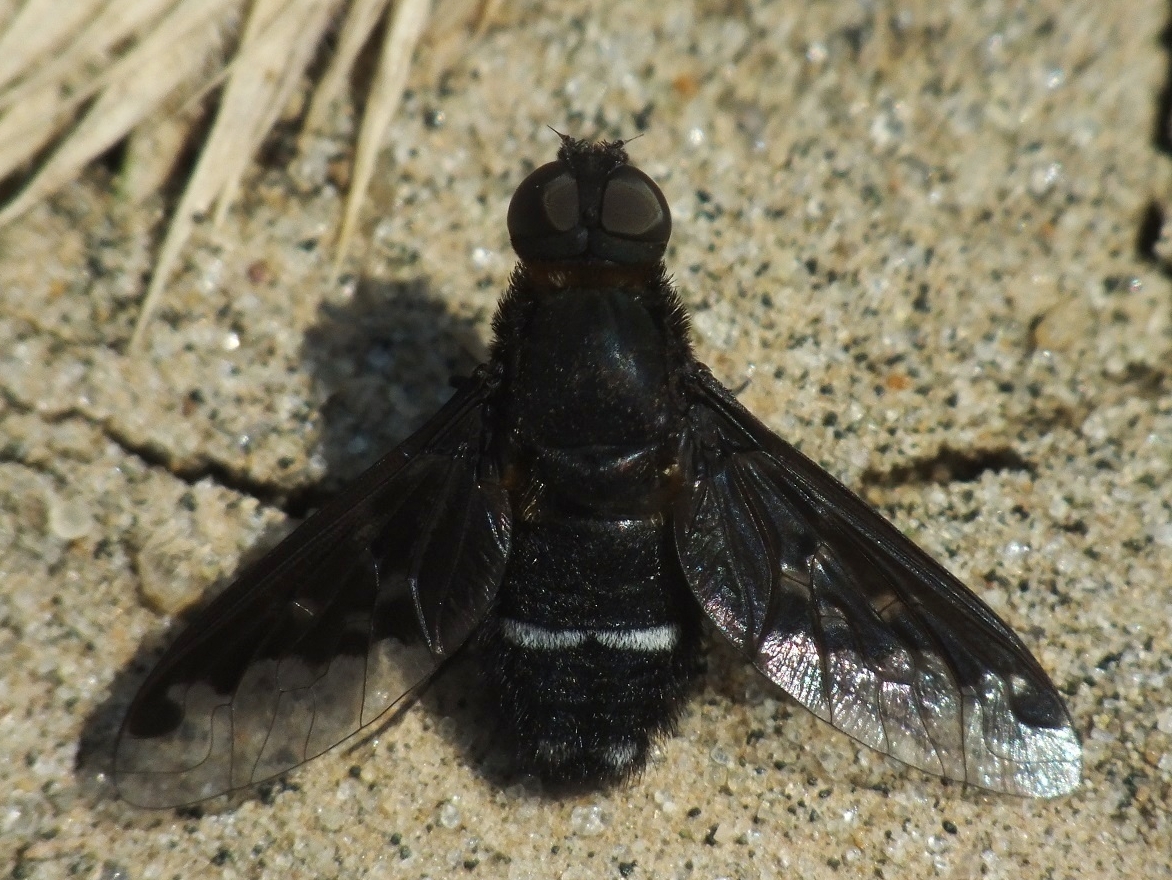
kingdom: Animalia
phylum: Arthropoda
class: Insecta
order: Diptera
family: Bombyliidae
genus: Hemipenthes
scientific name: Hemipenthes velutina
